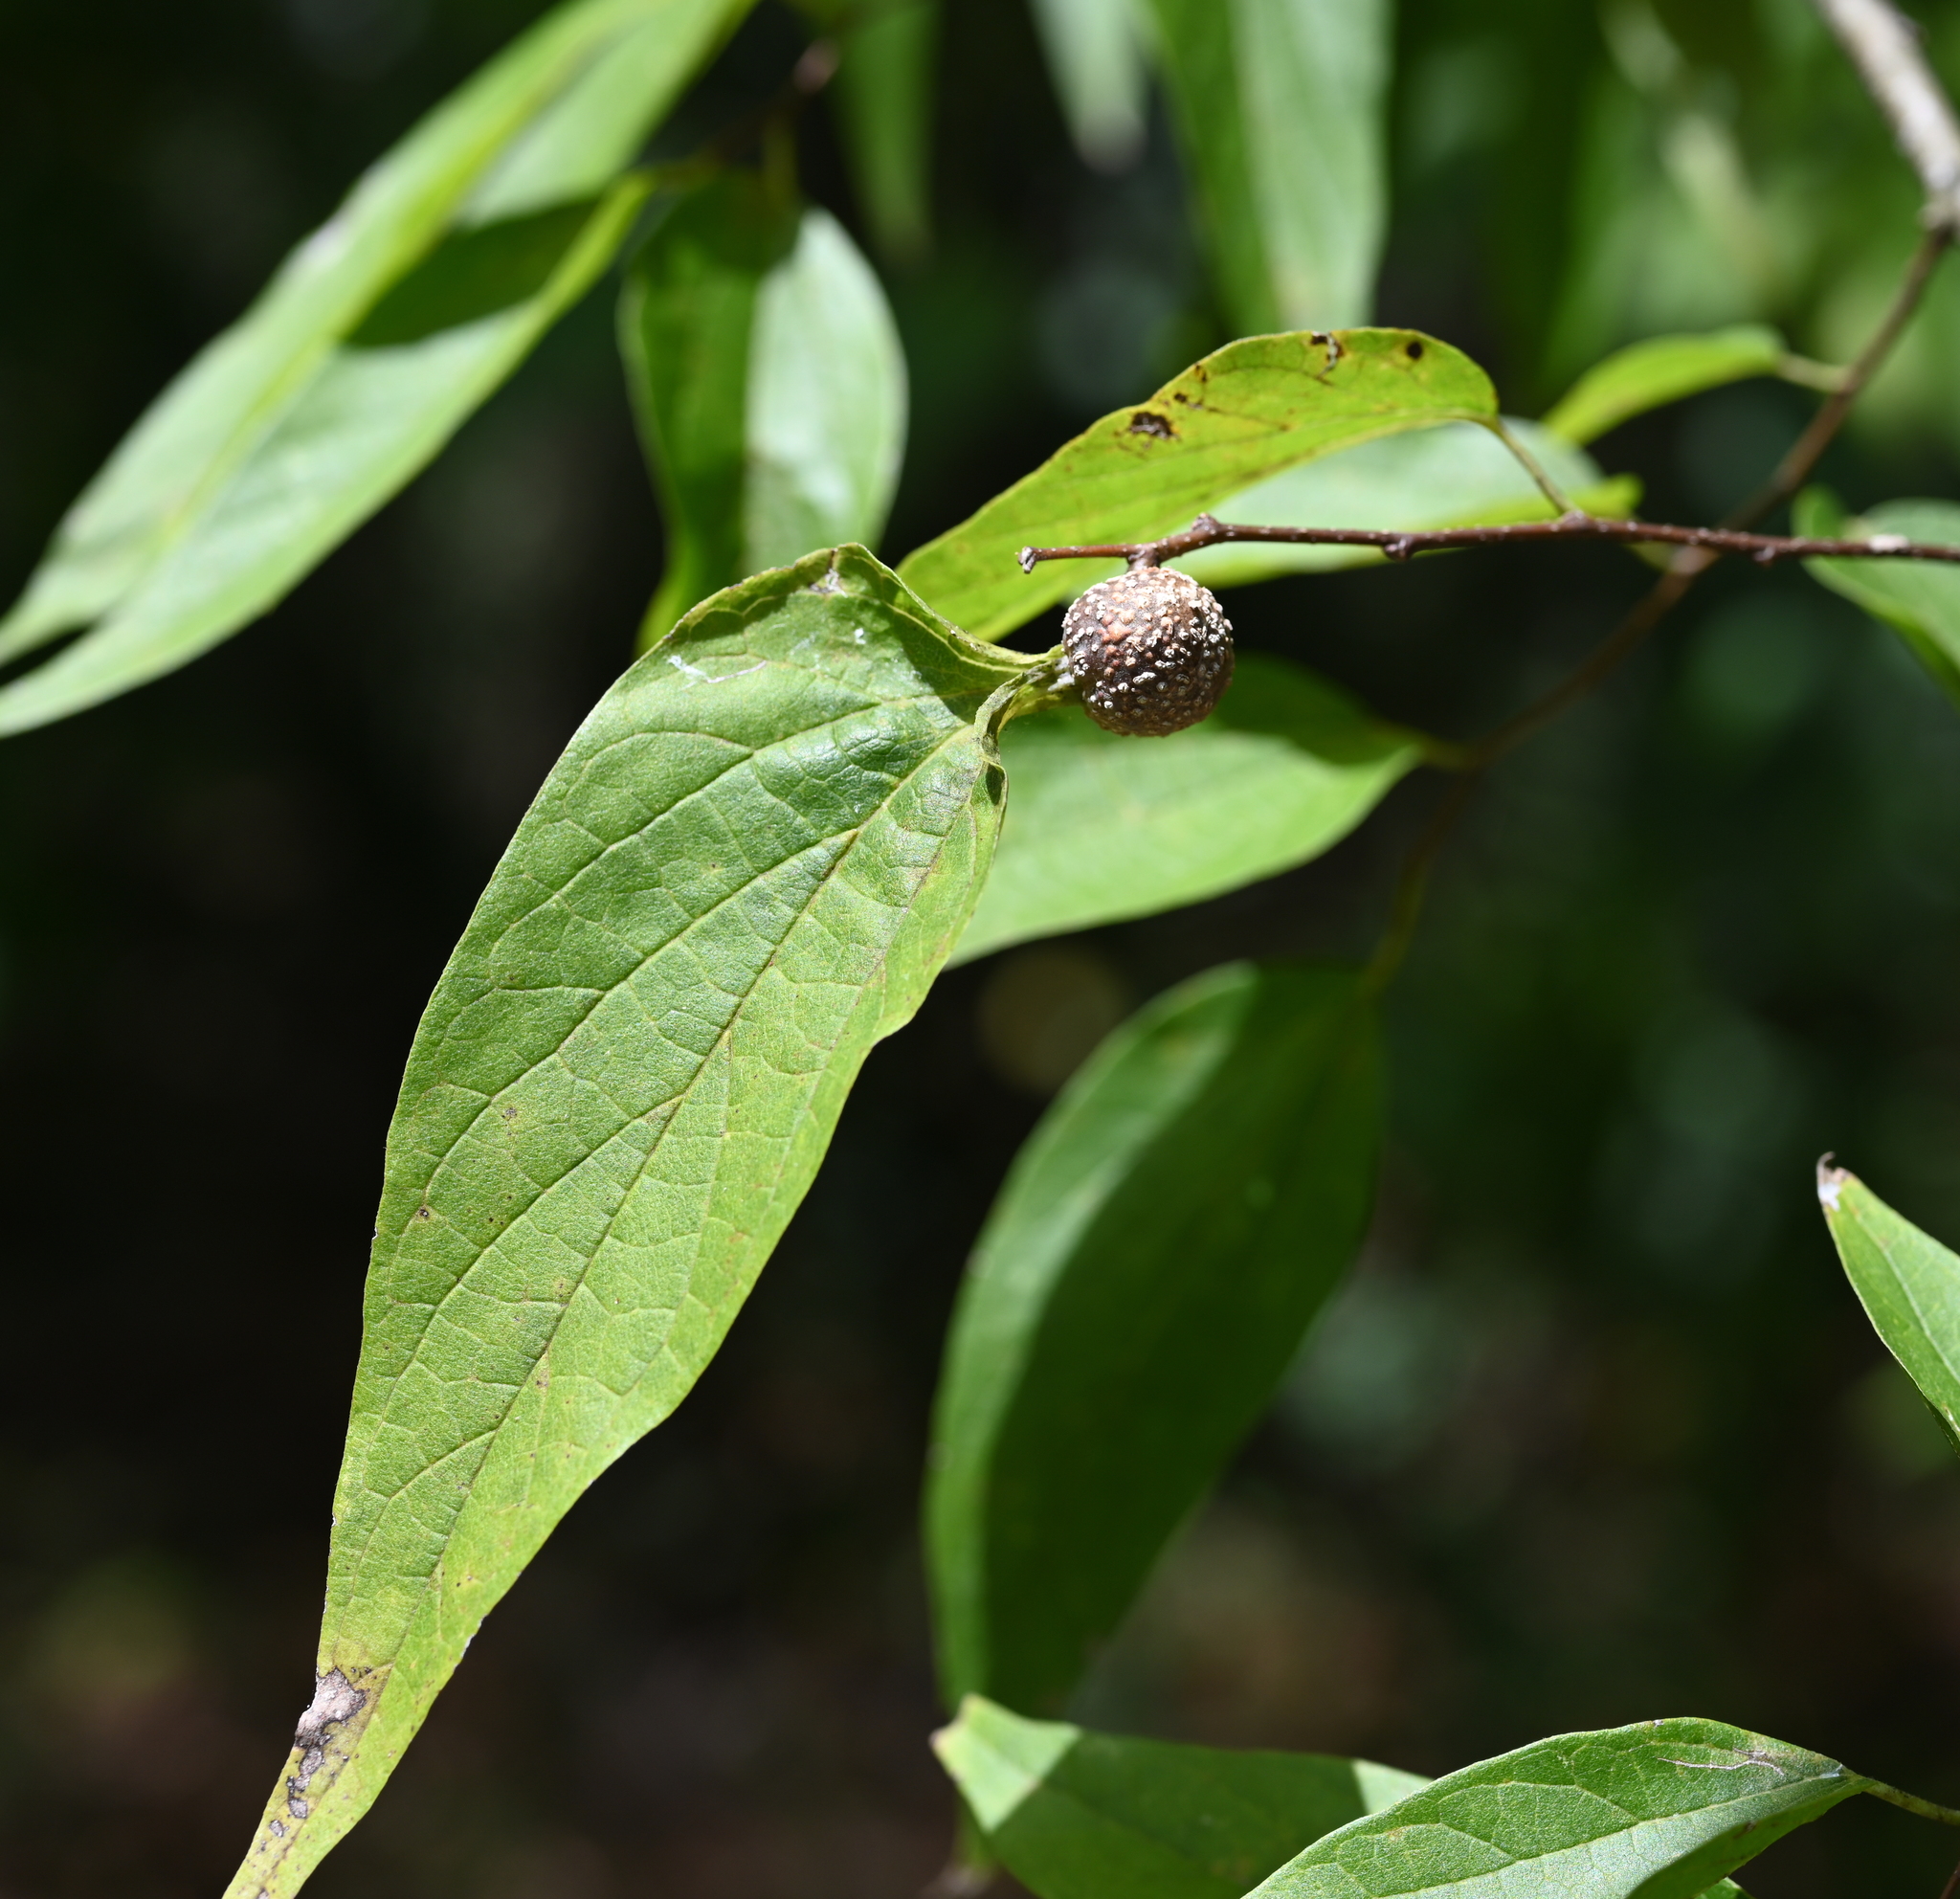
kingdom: Animalia
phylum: Arthropoda
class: Insecta
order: Hemiptera
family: Aphalaridae
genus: Pachypsylla
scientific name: Pachypsylla venusta
